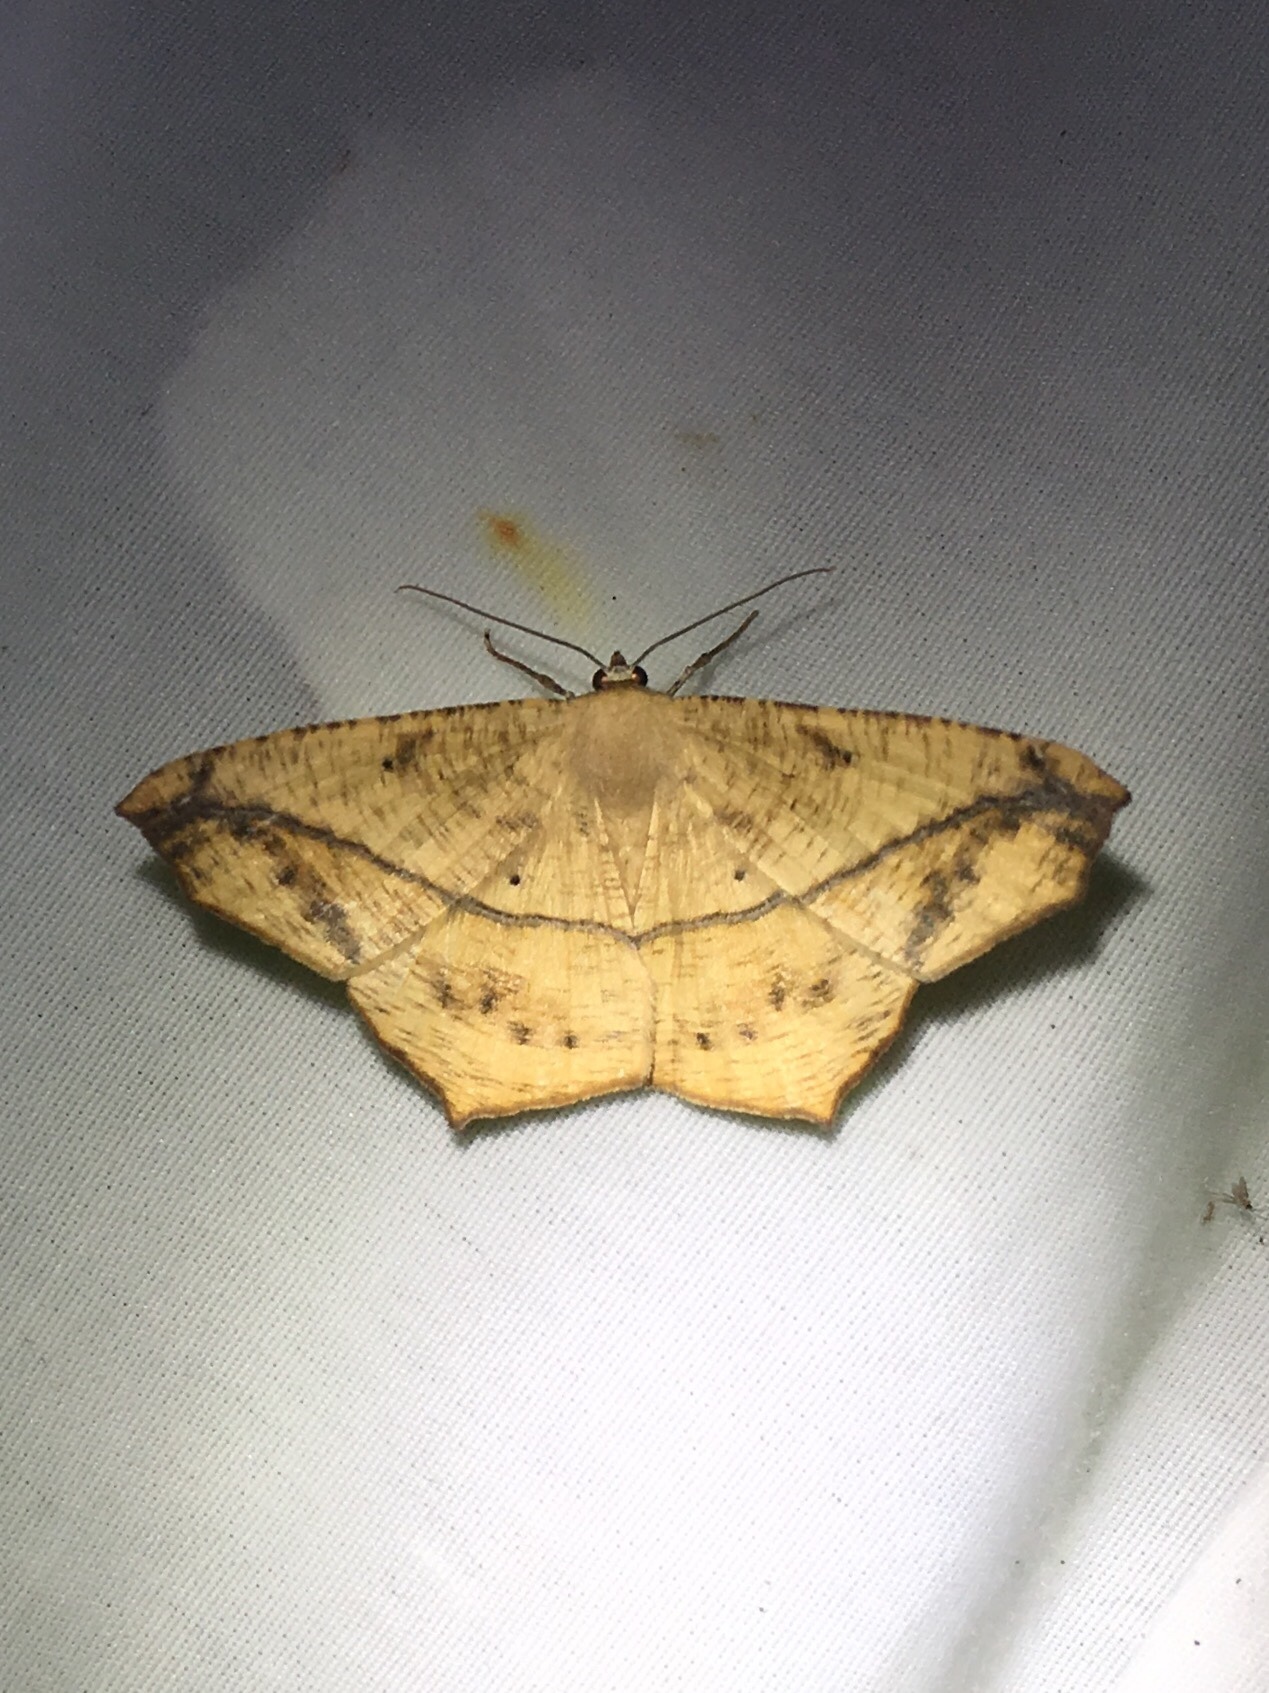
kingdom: Animalia
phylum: Arthropoda
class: Insecta
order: Lepidoptera
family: Geometridae
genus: Prochoerodes
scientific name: Prochoerodes lineola
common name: Large maple spanworm
